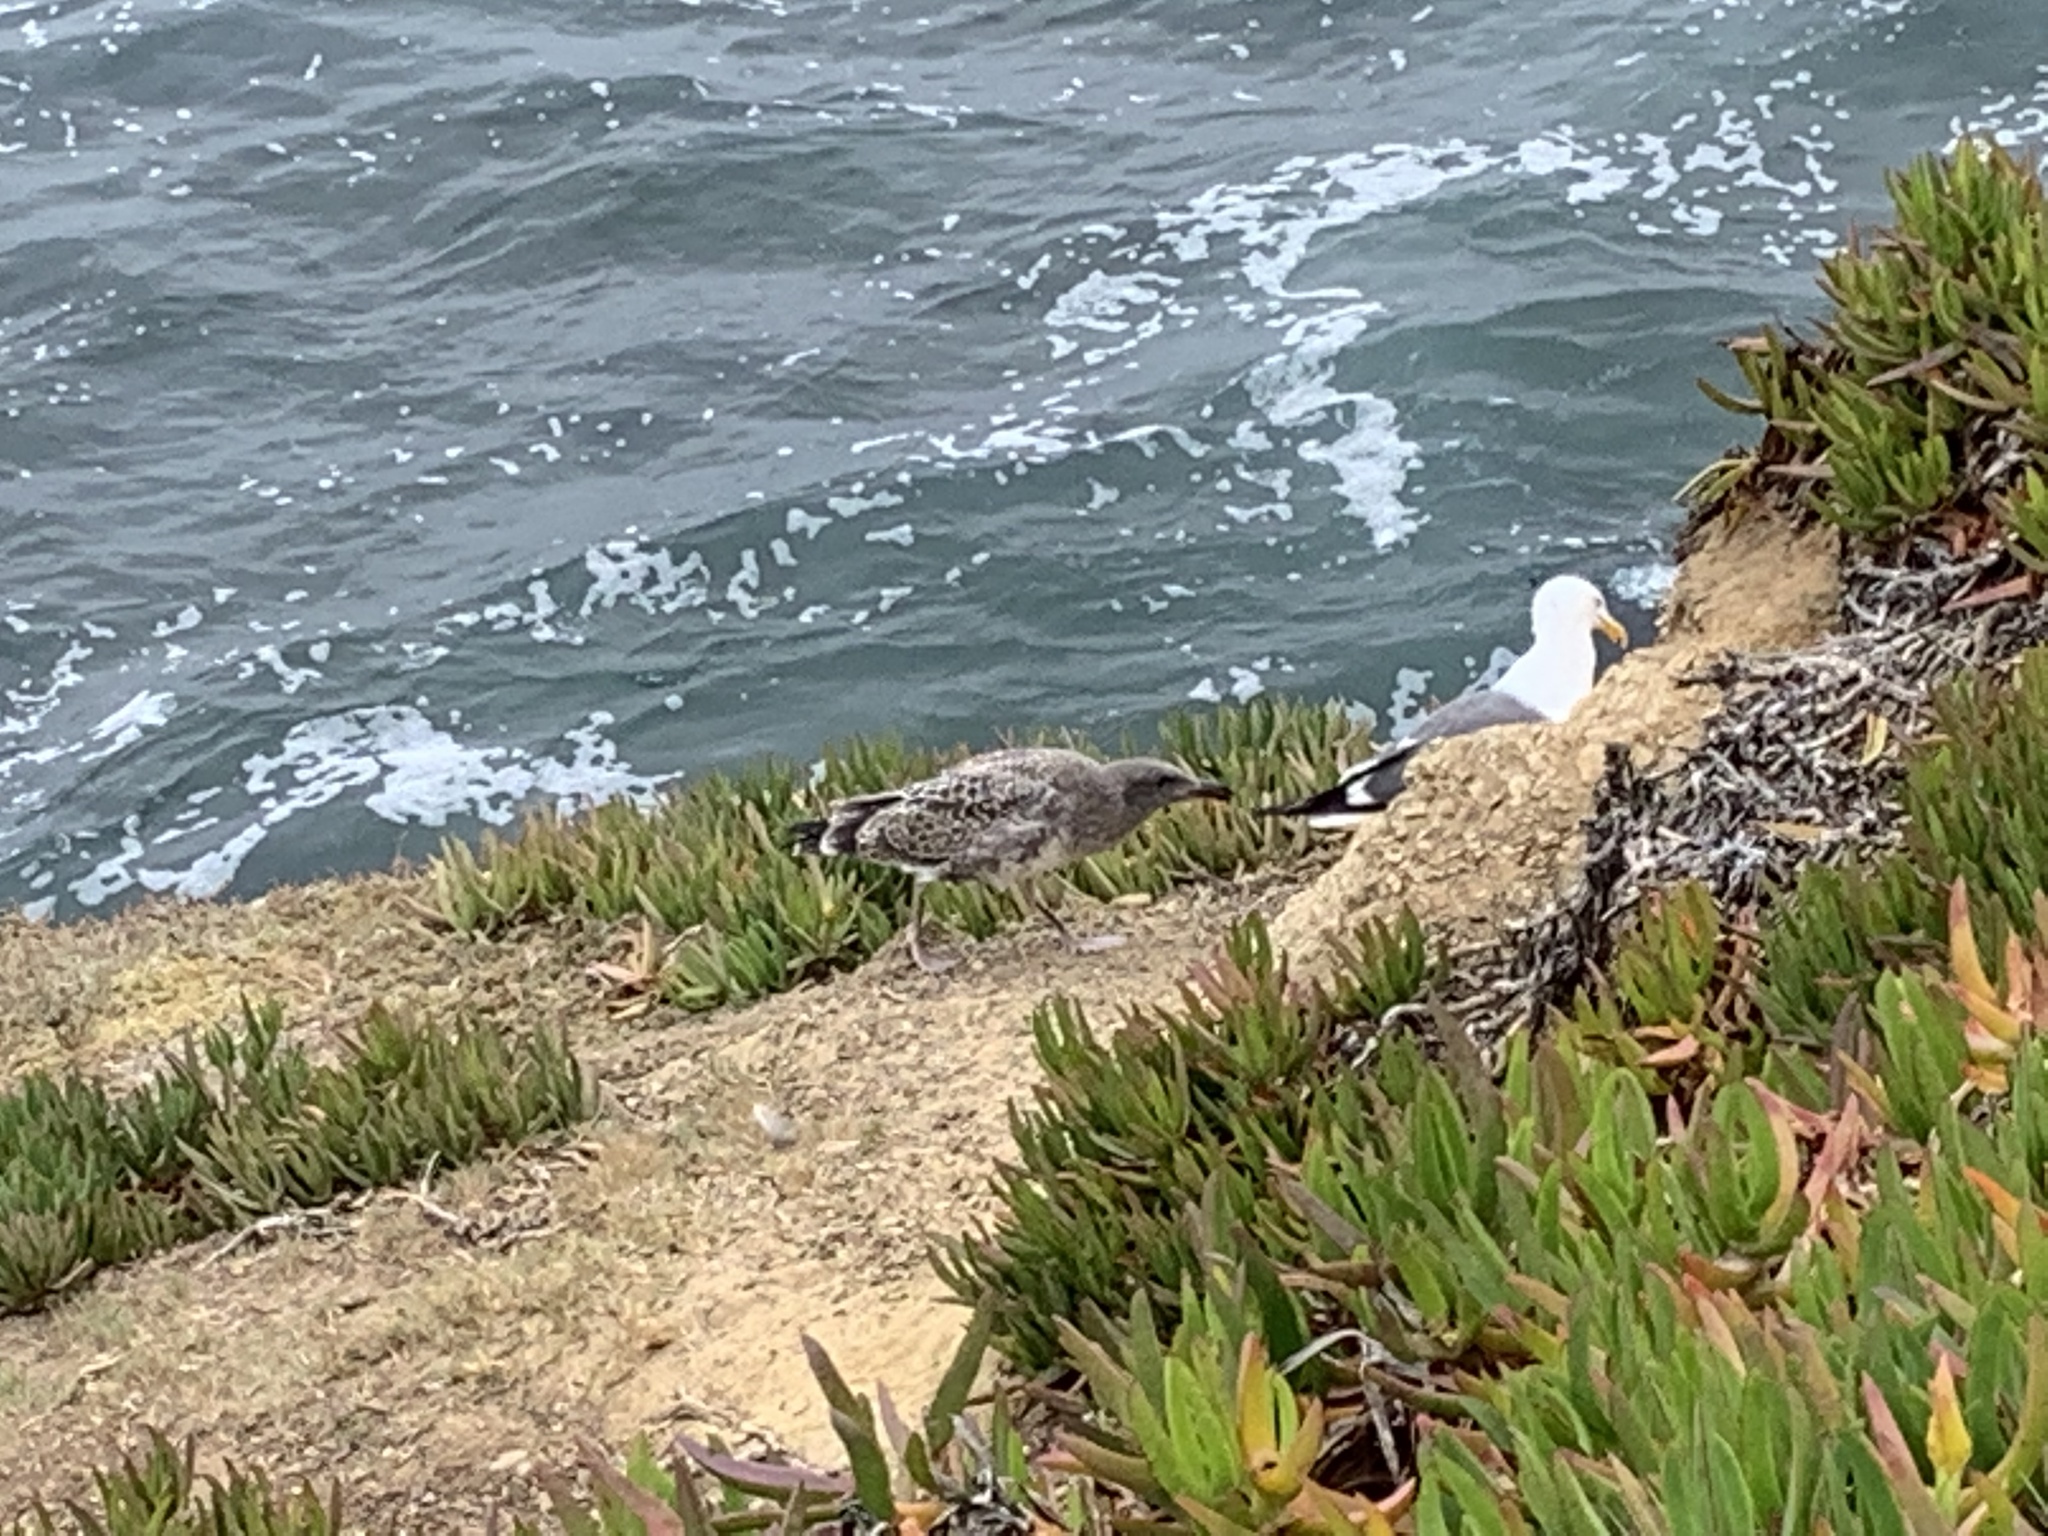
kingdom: Animalia
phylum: Chordata
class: Aves
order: Charadriiformes
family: Laridae
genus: Larus
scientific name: Larus occidentalis
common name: Western gull
